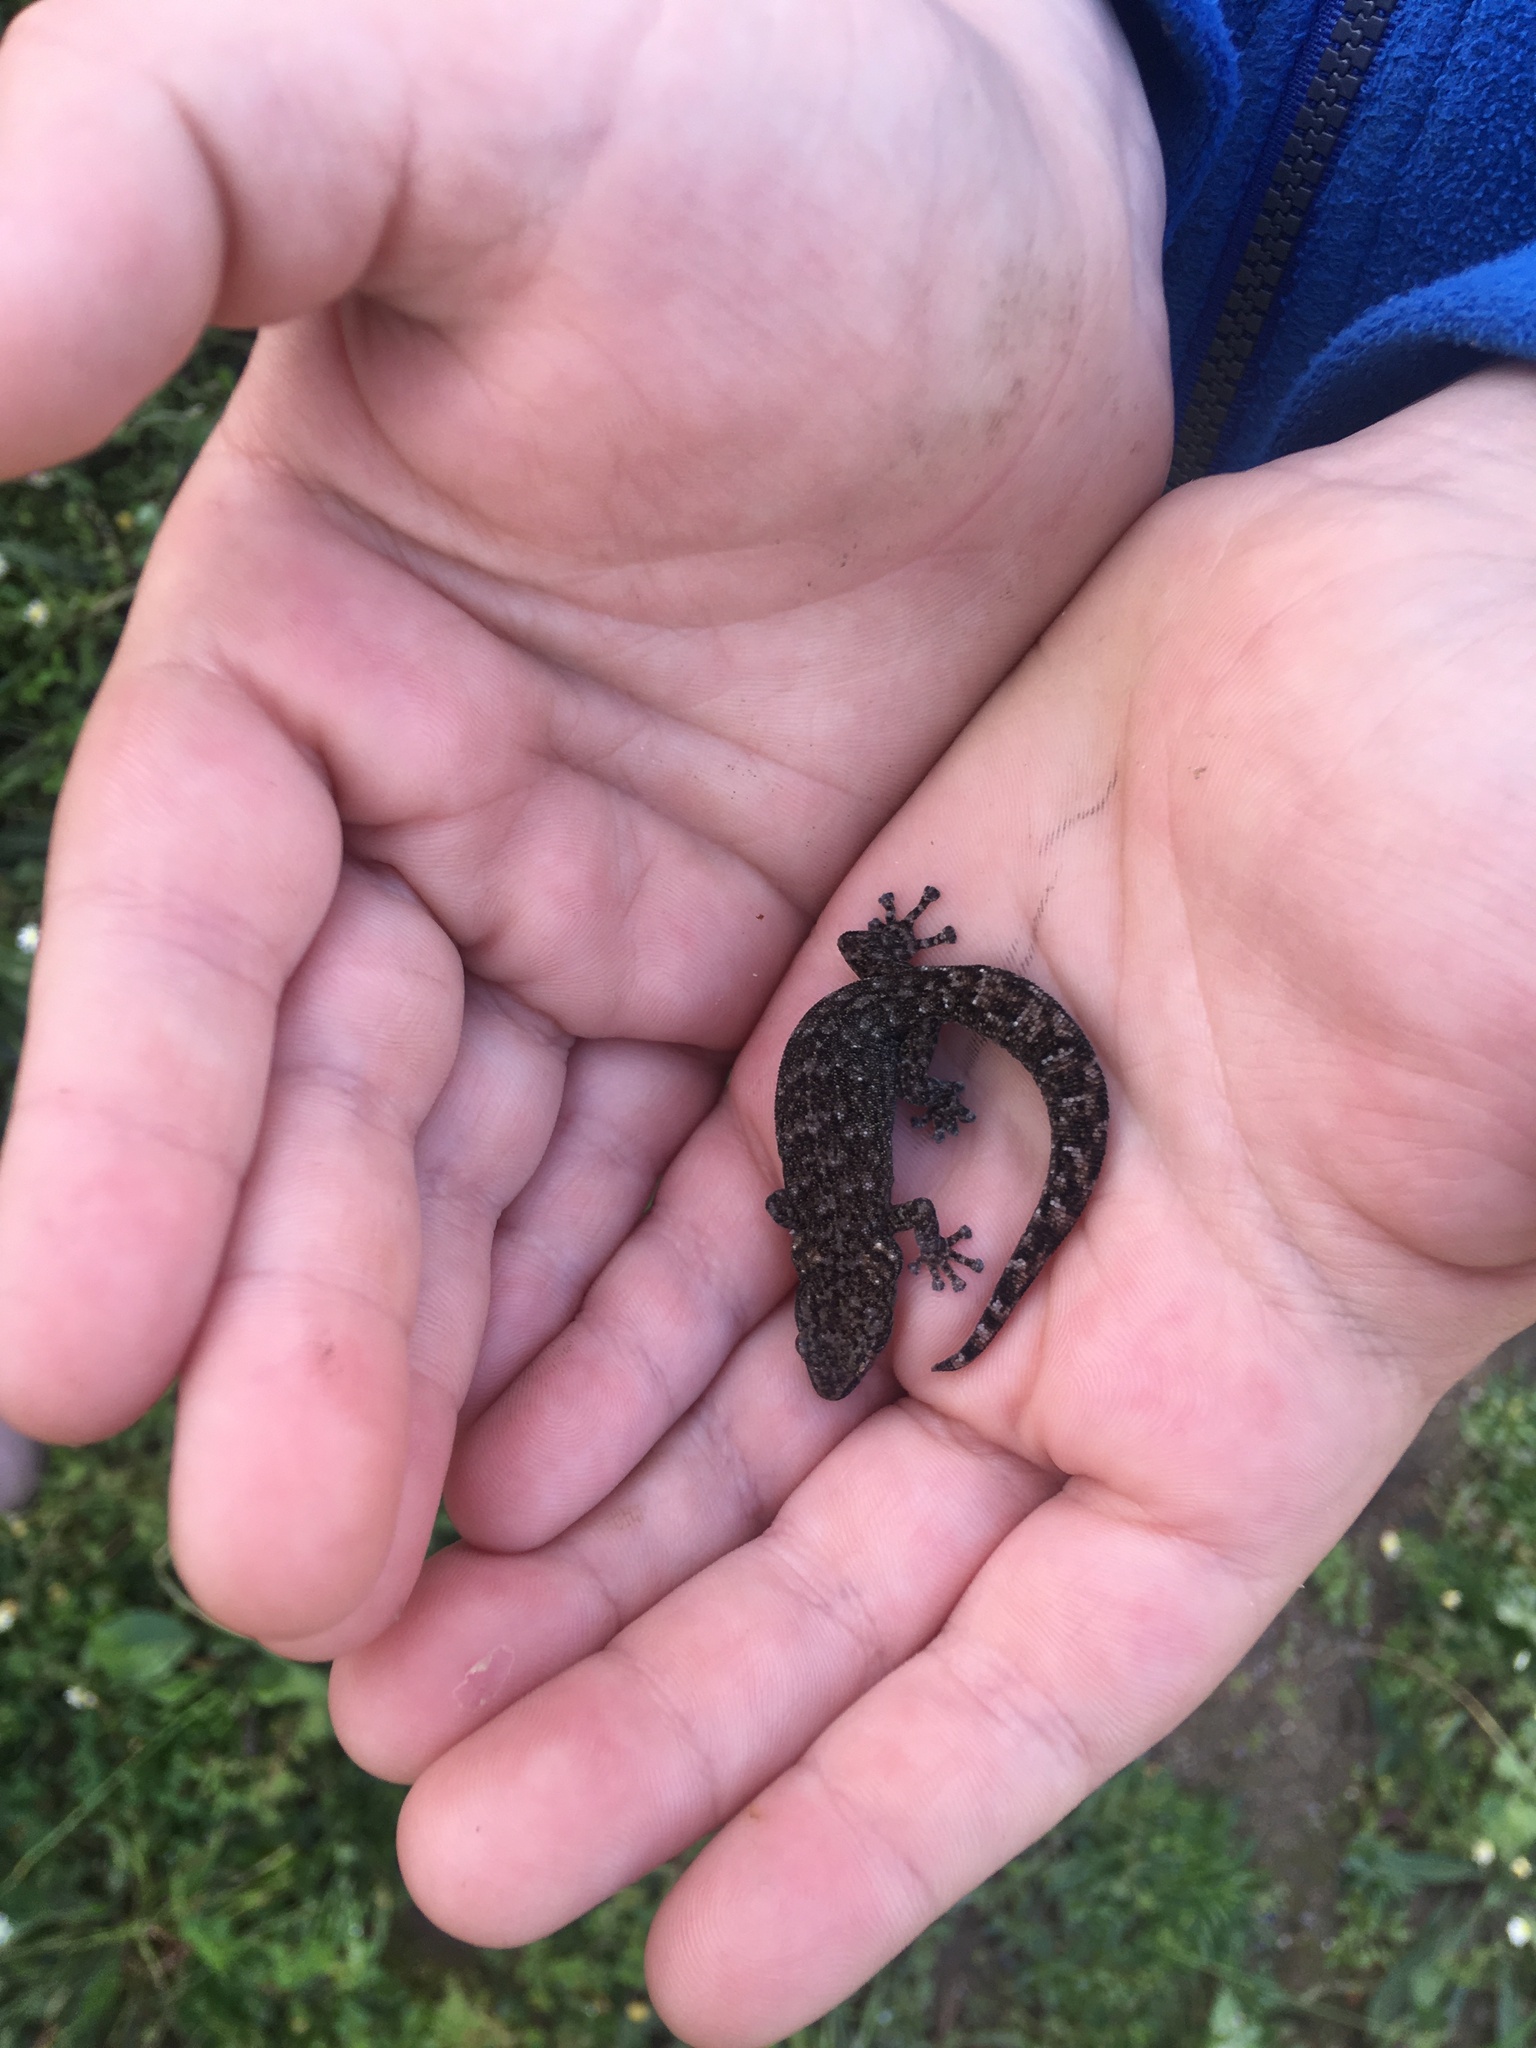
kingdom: Animalia
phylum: Chordata
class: Squamata
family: Gekkonidae
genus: Afrogecko
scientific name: Afrogecko porphyreus
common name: Marbled leaf-toed gecko
